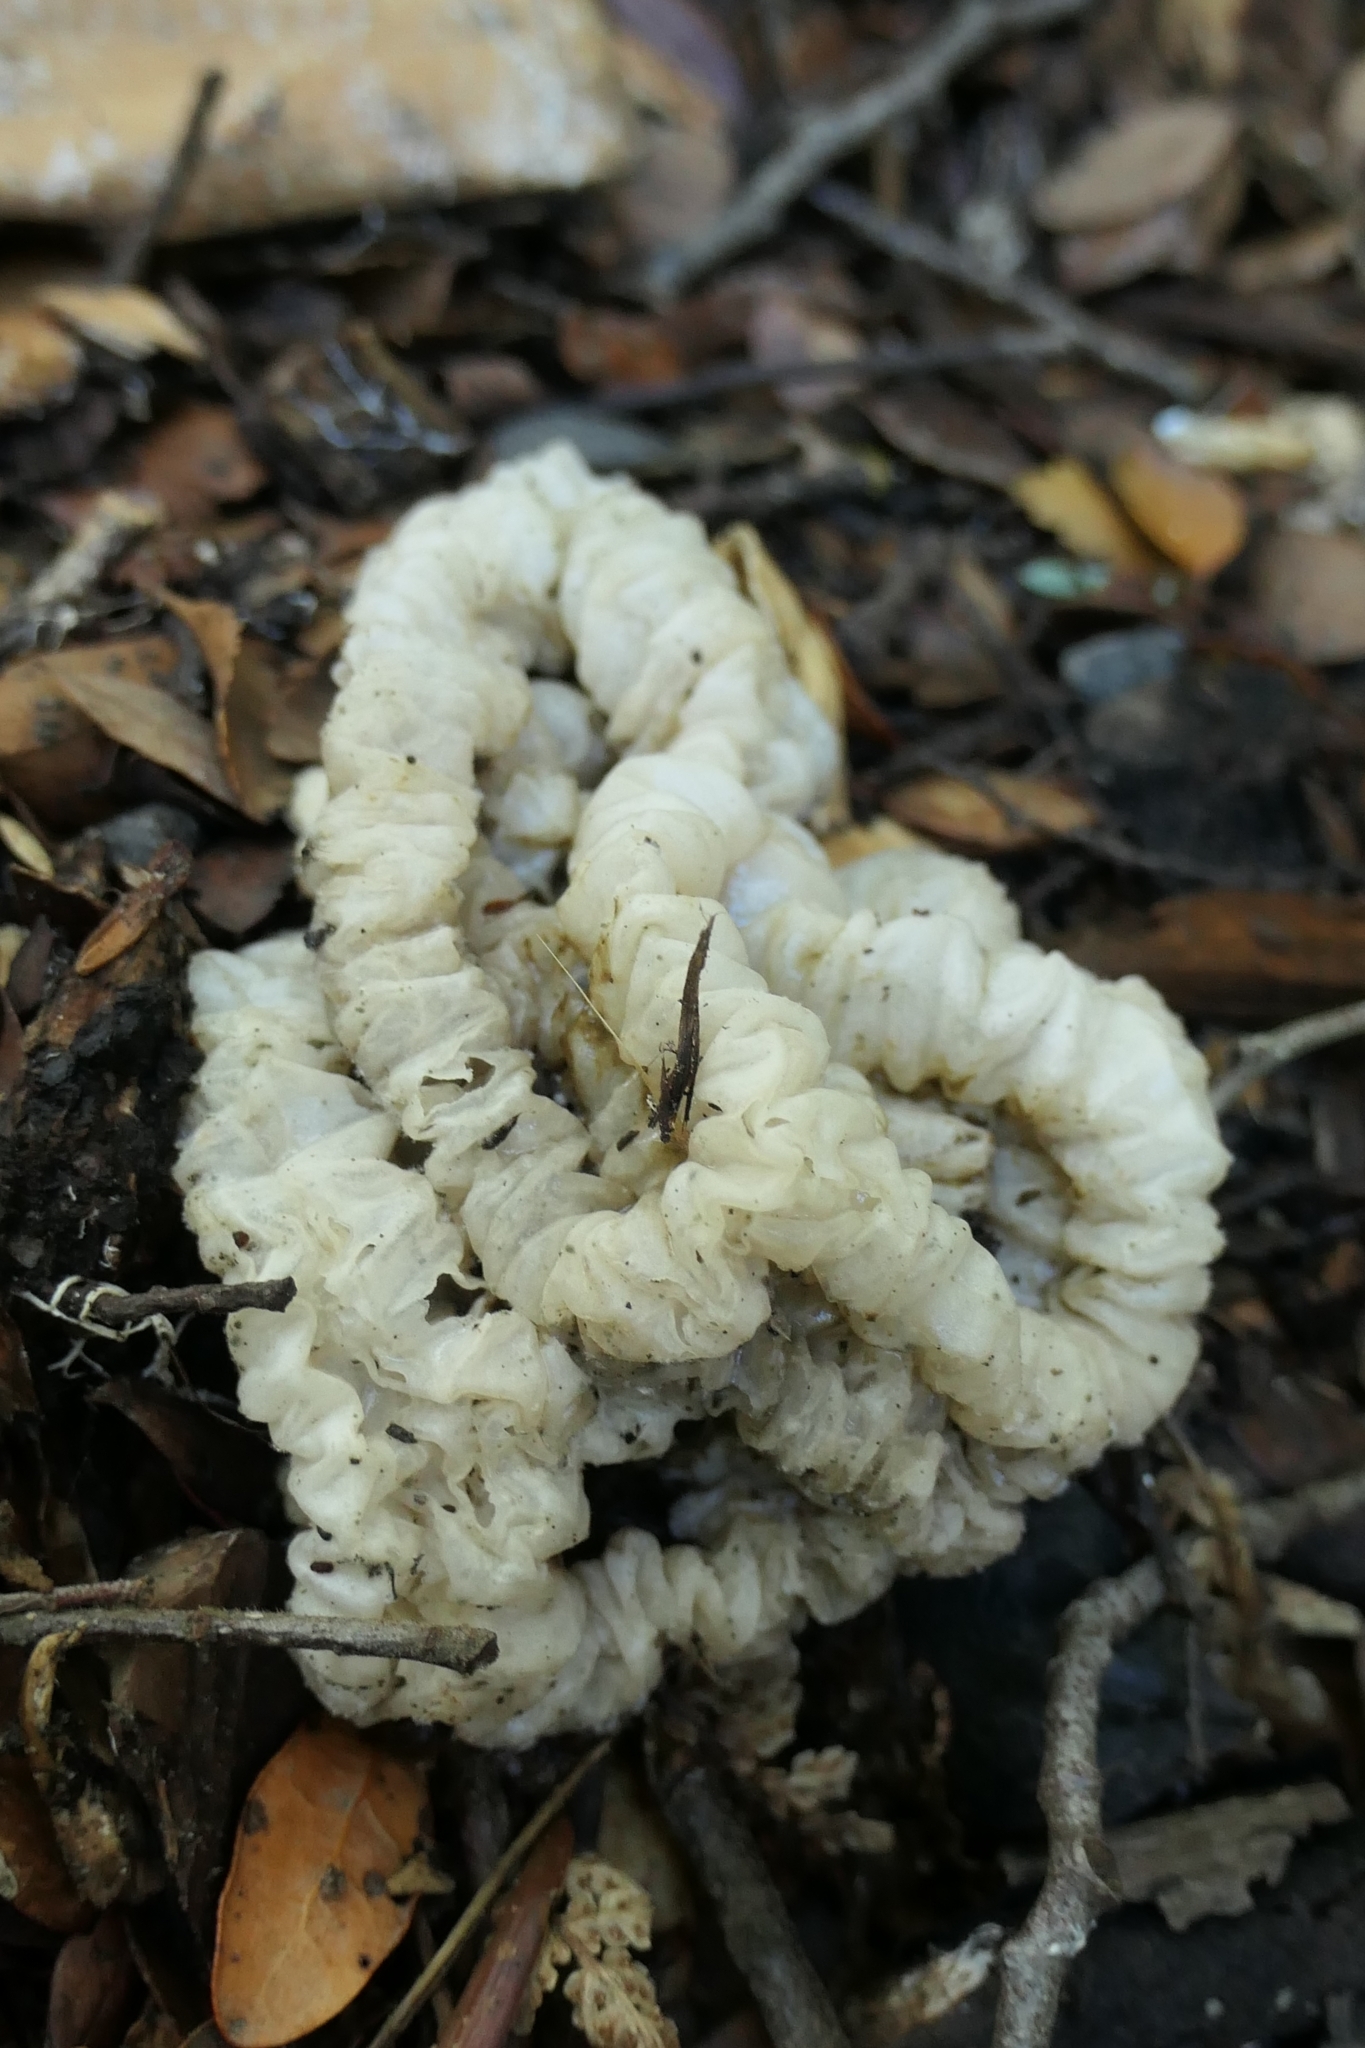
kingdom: Fungi
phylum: Basidiomycota
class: Agaricomycetes
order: Phallales
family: Phallaceae
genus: Ileodictyon
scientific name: Ileodictyon cibarium
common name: Basket fungus
